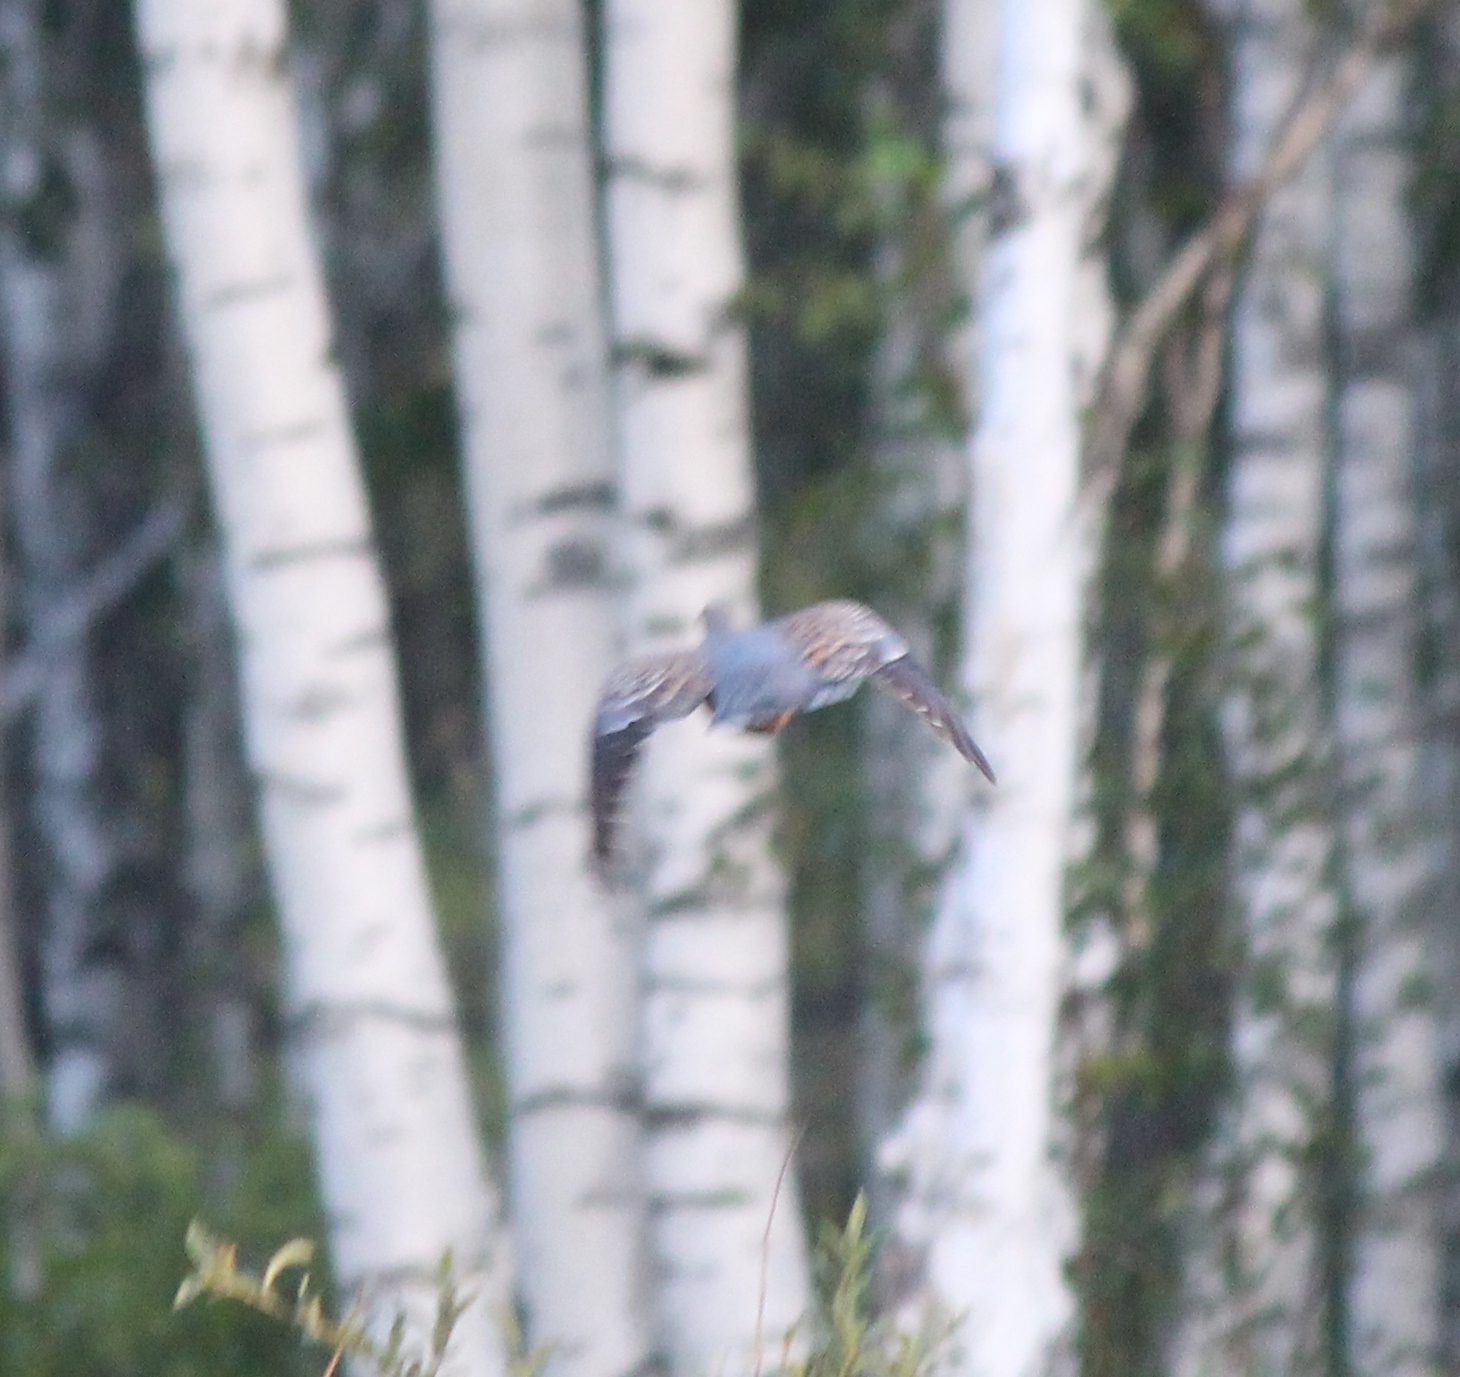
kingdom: Animalia
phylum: Chordata
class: Aves
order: Columbiformes
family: Columbidae
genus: Streptopelia
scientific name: Streptopelia orientalis
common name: Oriental turtle dove
